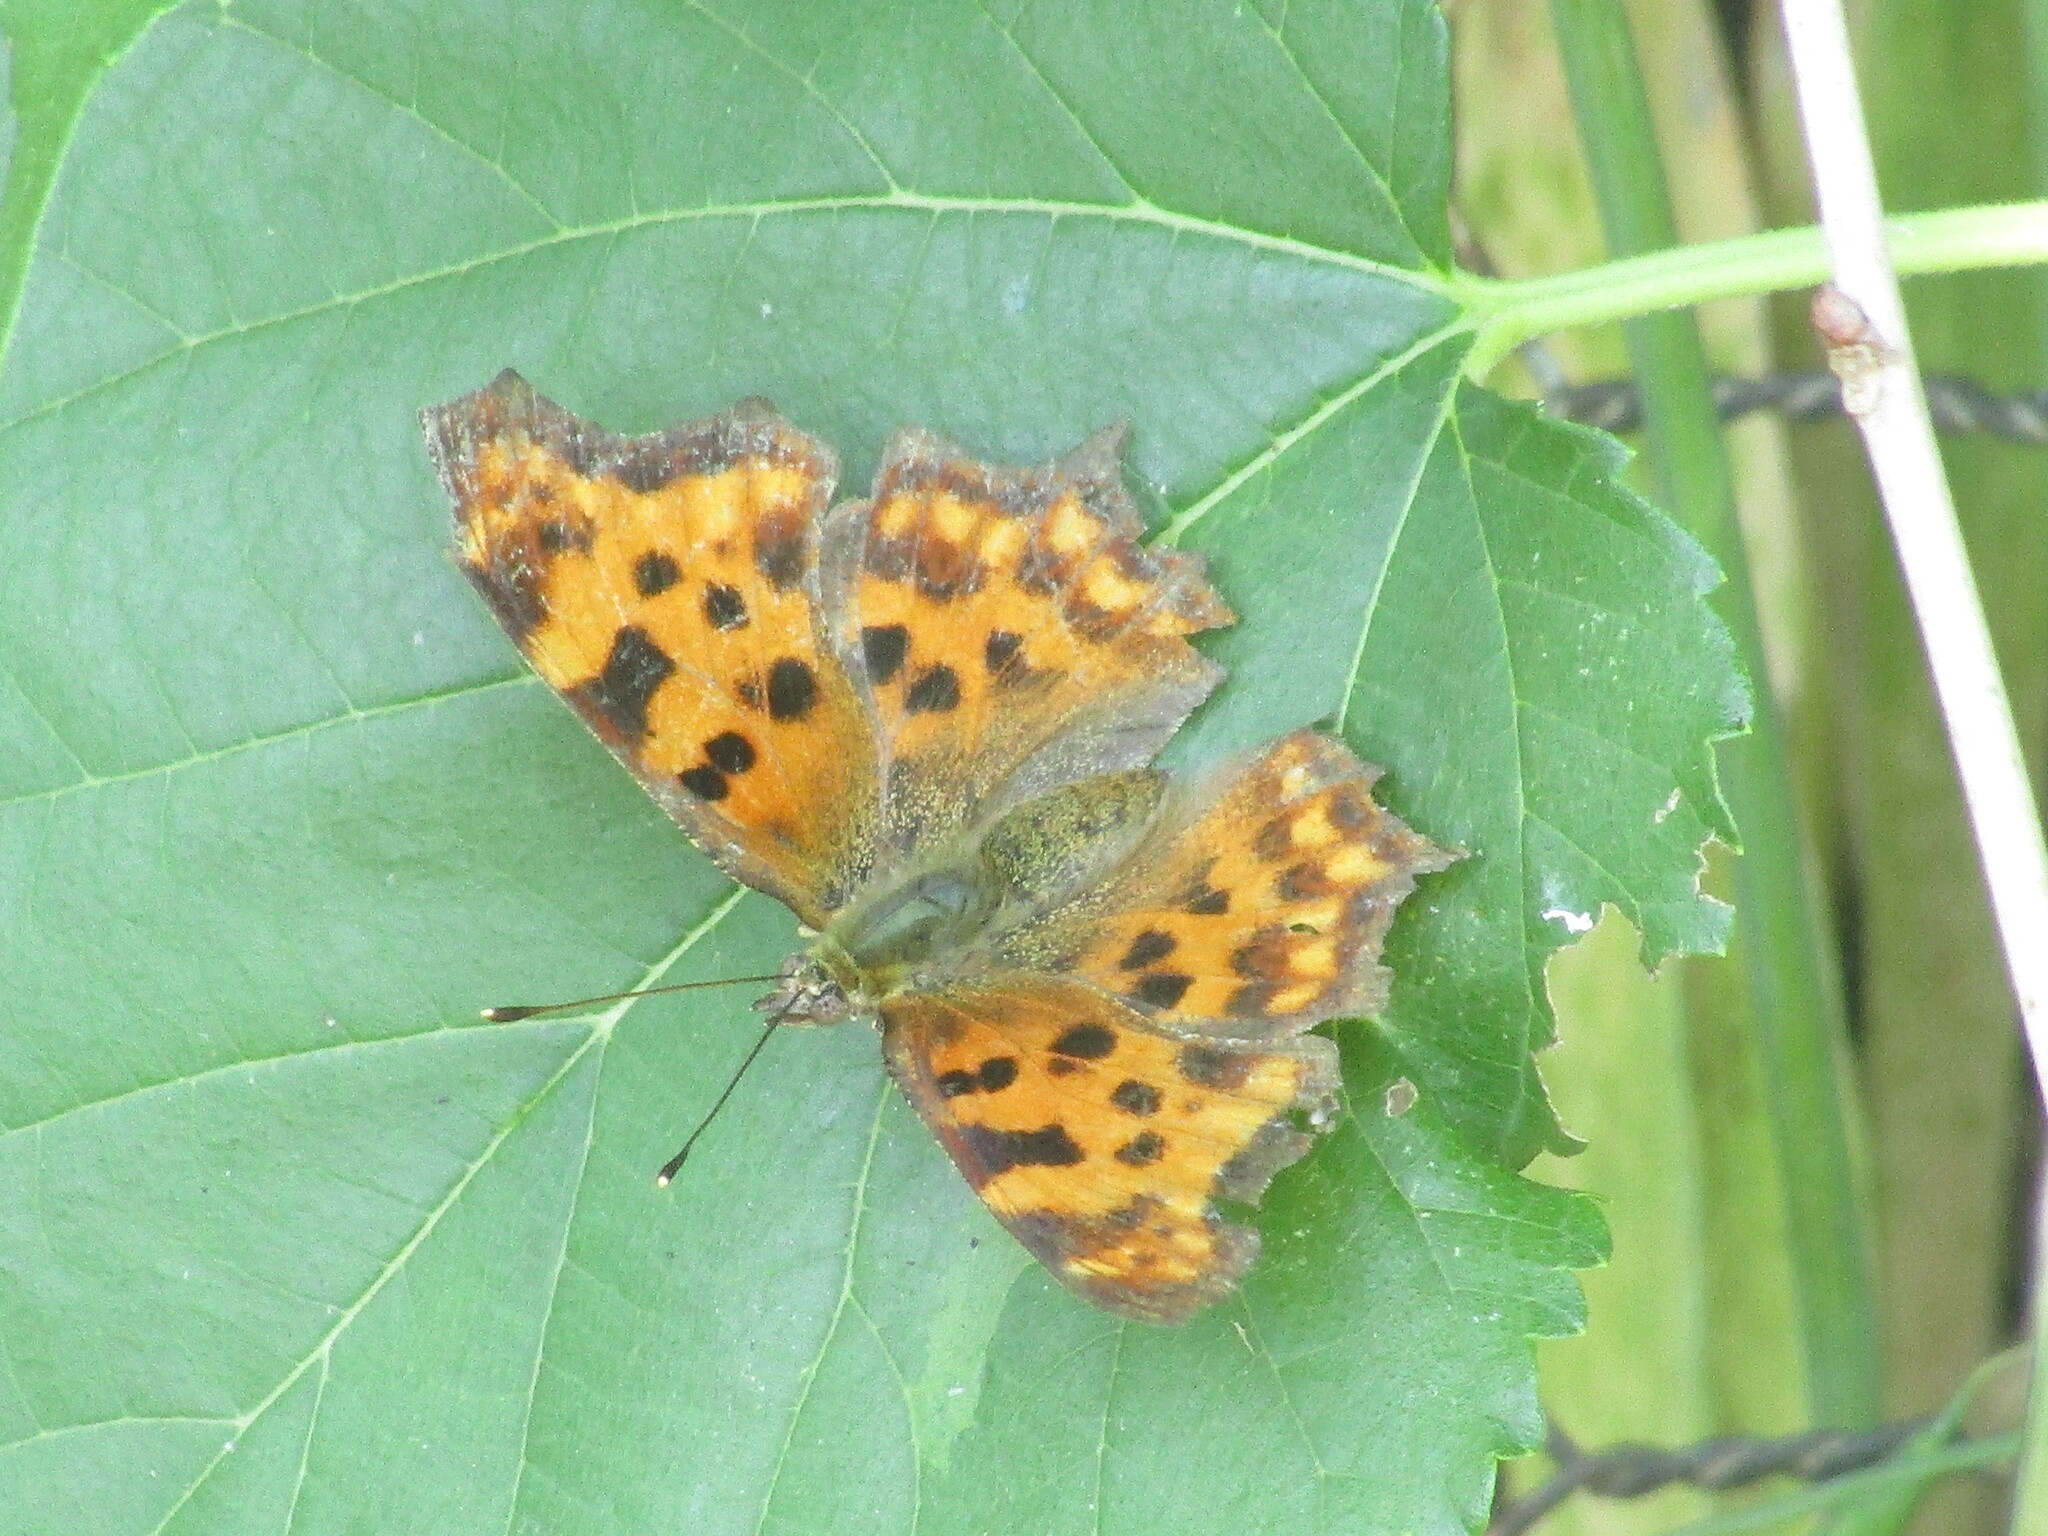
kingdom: Animalia
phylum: Arthropoda
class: Insecta
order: Lepidoptera
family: Nymphalidae
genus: Polygonia
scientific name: Polygonia c-album
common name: Comma
